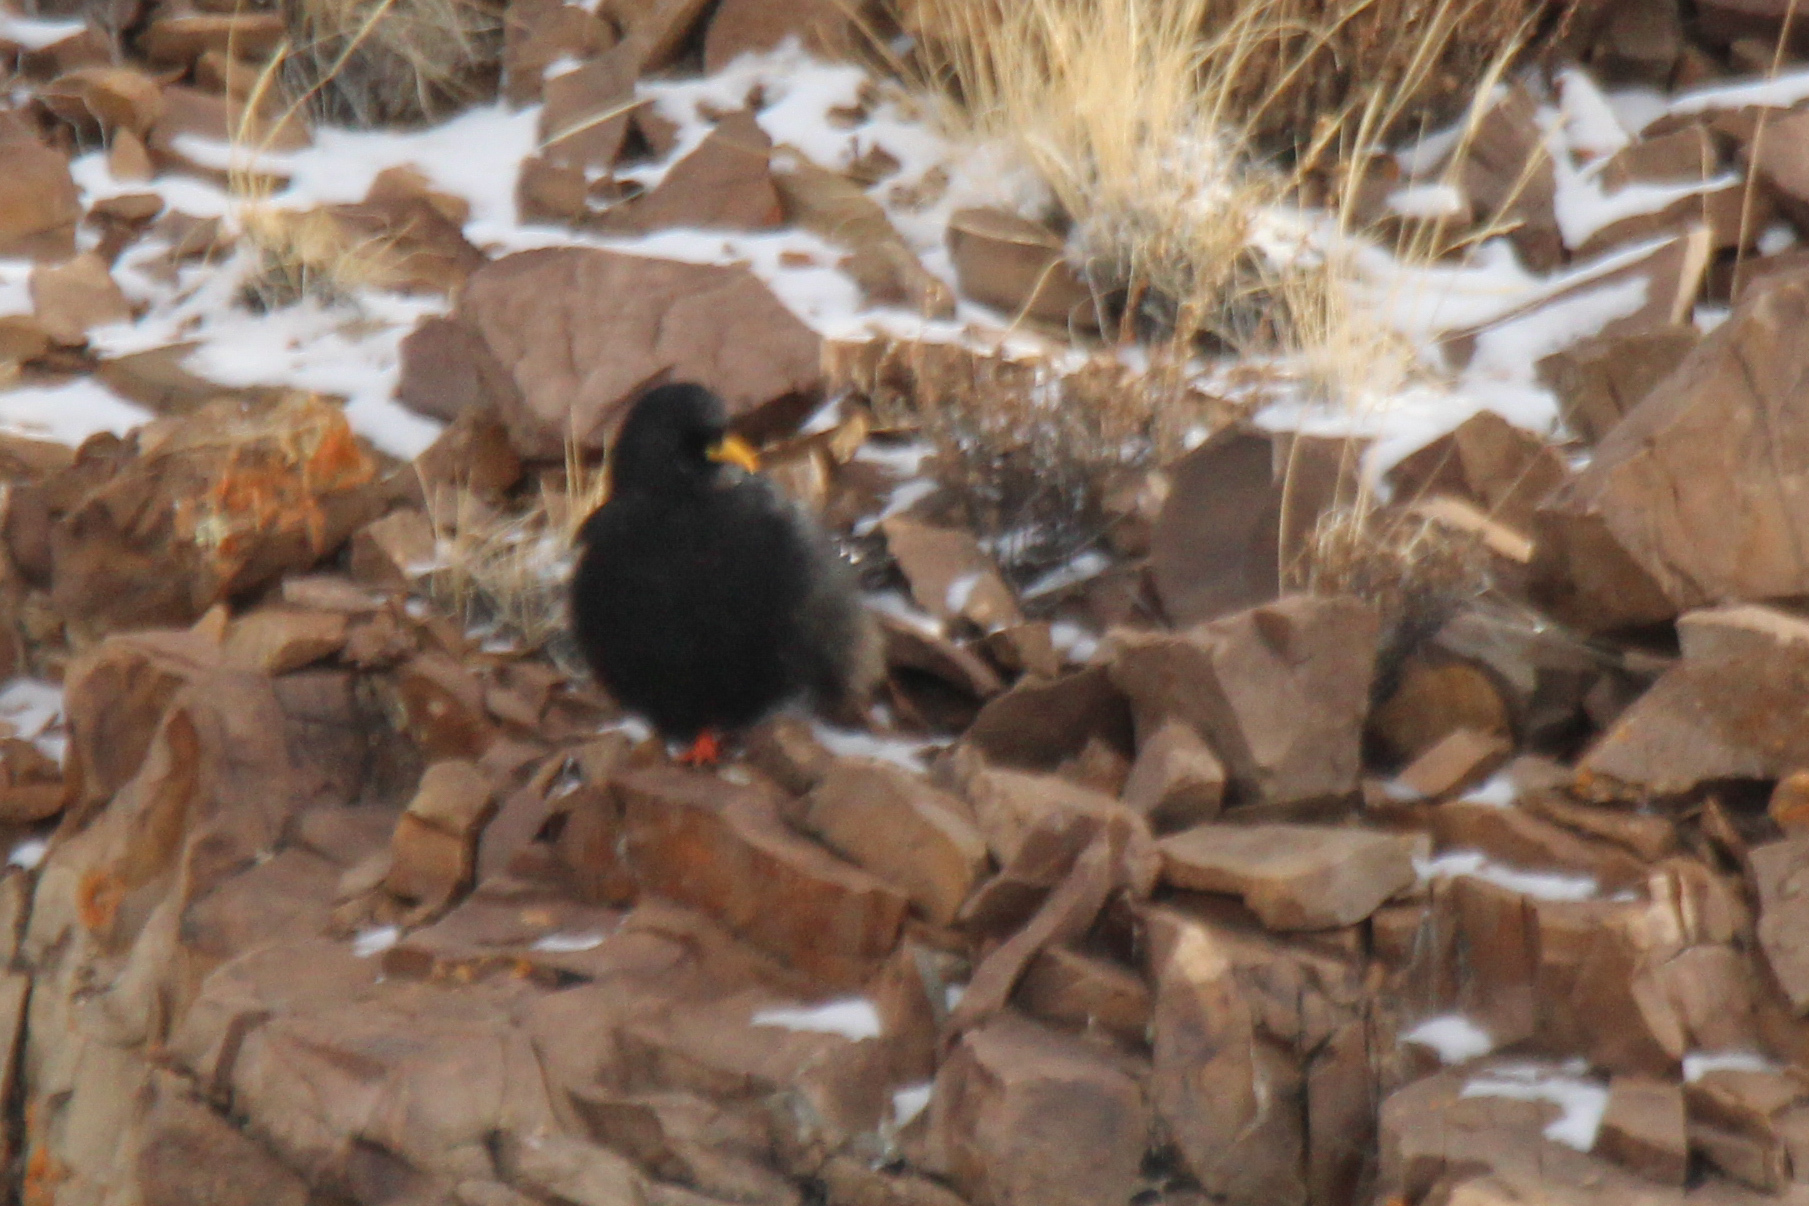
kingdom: Animalia
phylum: Chordata
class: Aves
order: Passeriformes
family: Corvidae
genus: Pyrrhocorax
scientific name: Pyrrhocorax graculus
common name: Alpine chough
